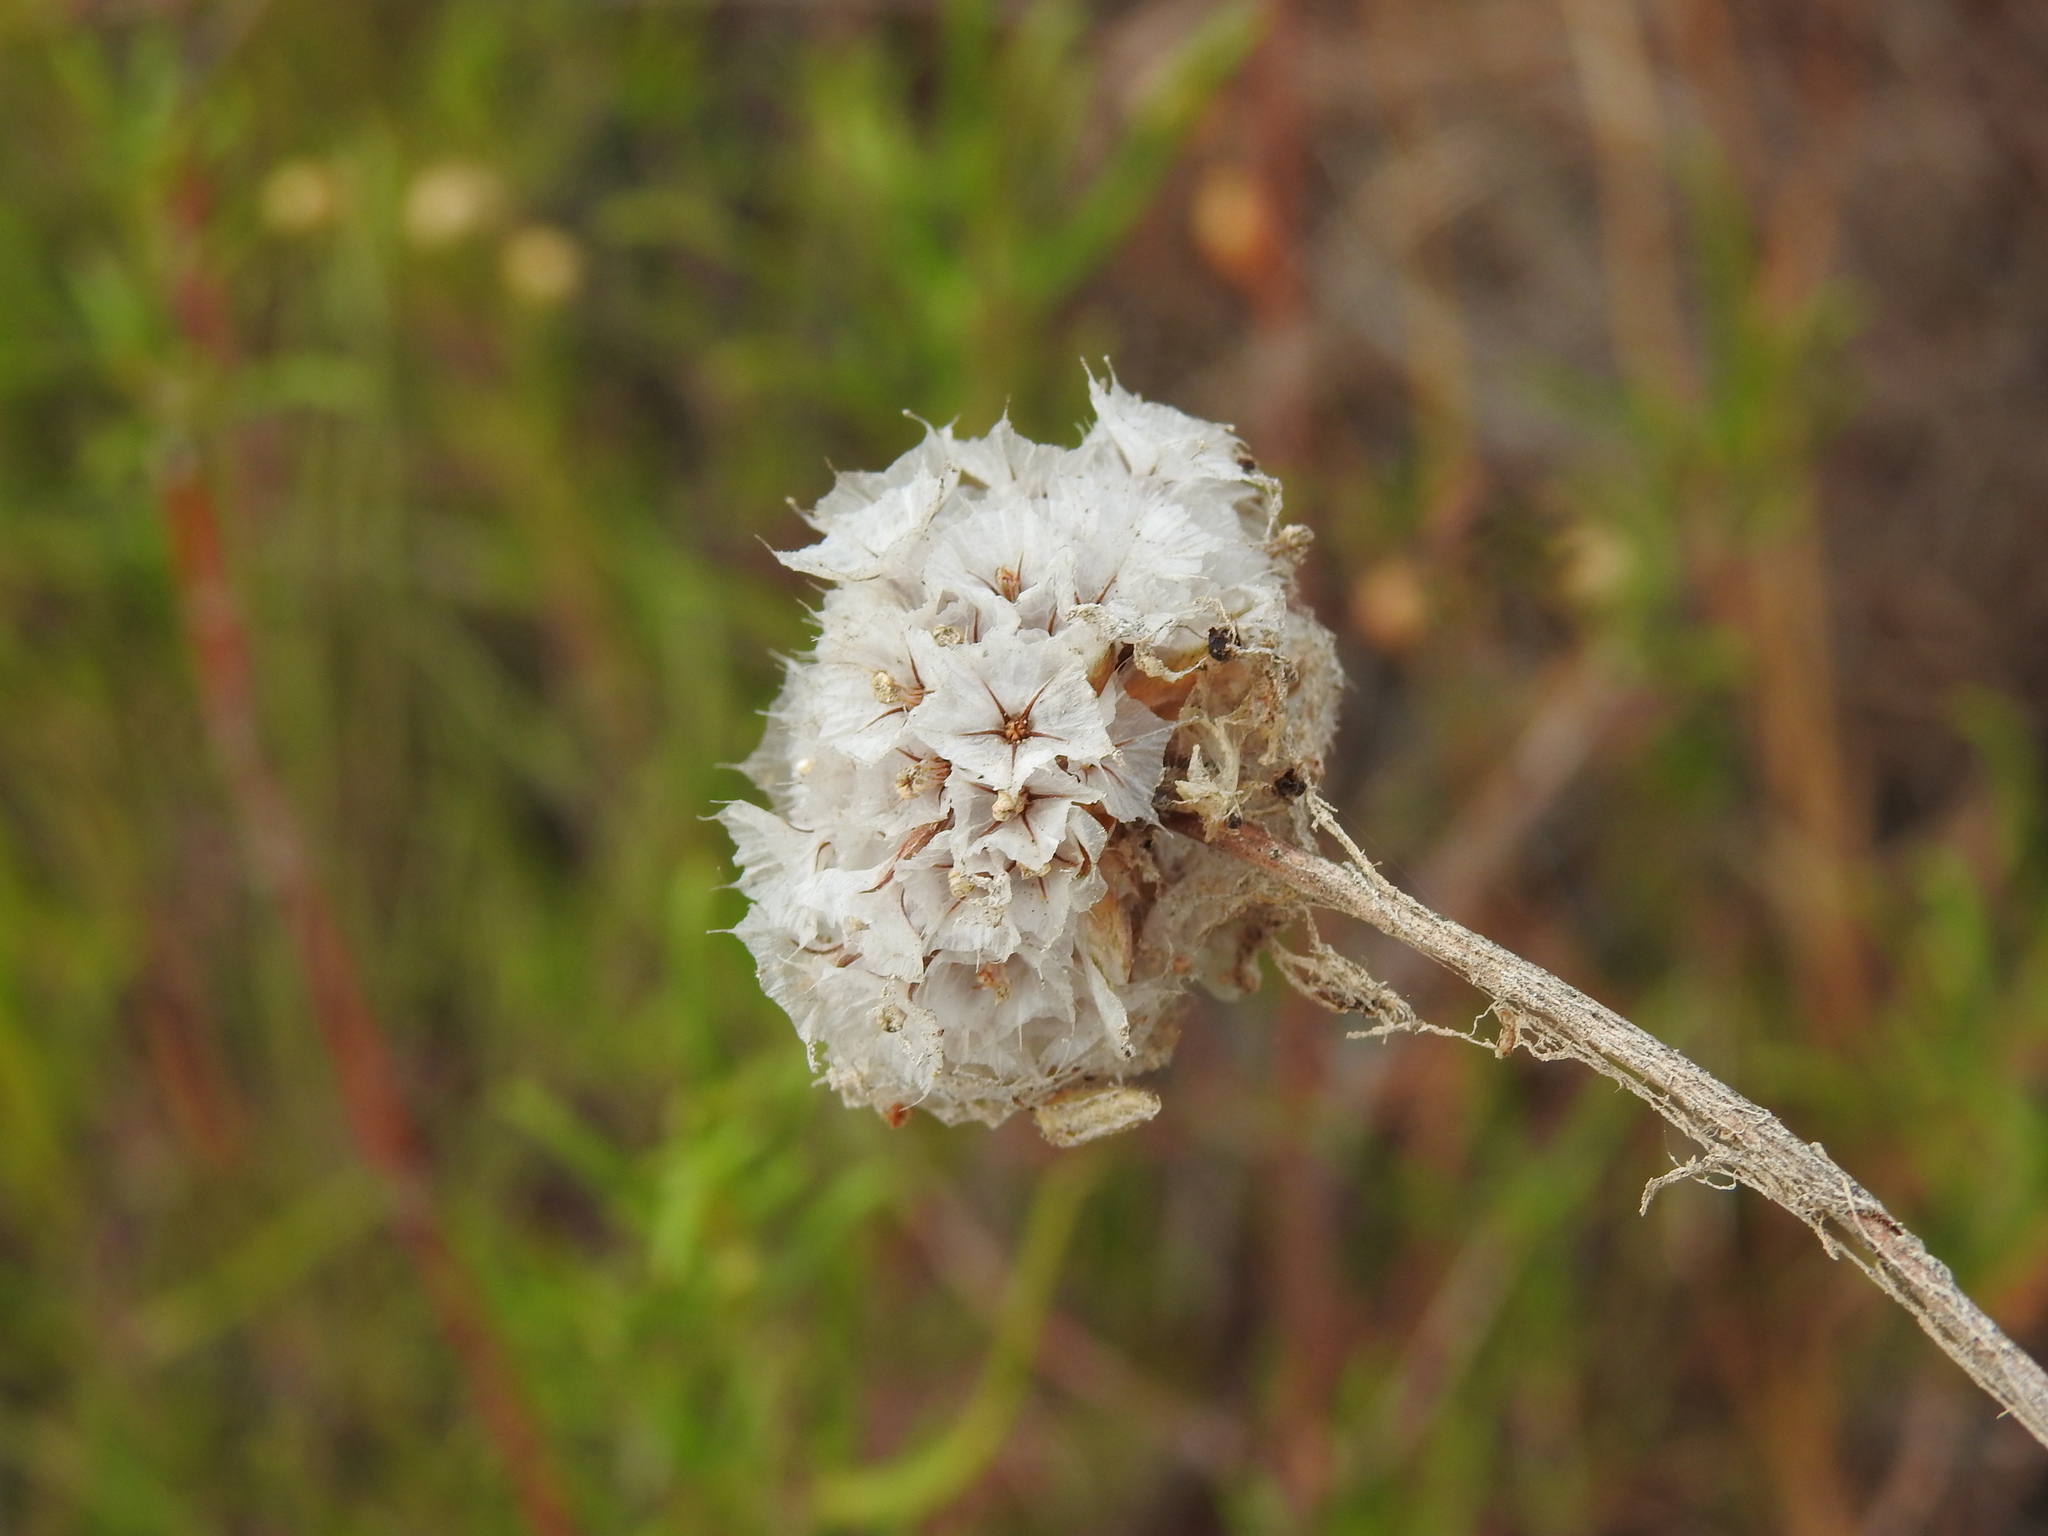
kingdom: Plantae
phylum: Tracheophyta
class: Magnoliopsida
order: Caryophyllales
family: Plumbaginaceae
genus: Armeria
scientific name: Armeria macrophylla
